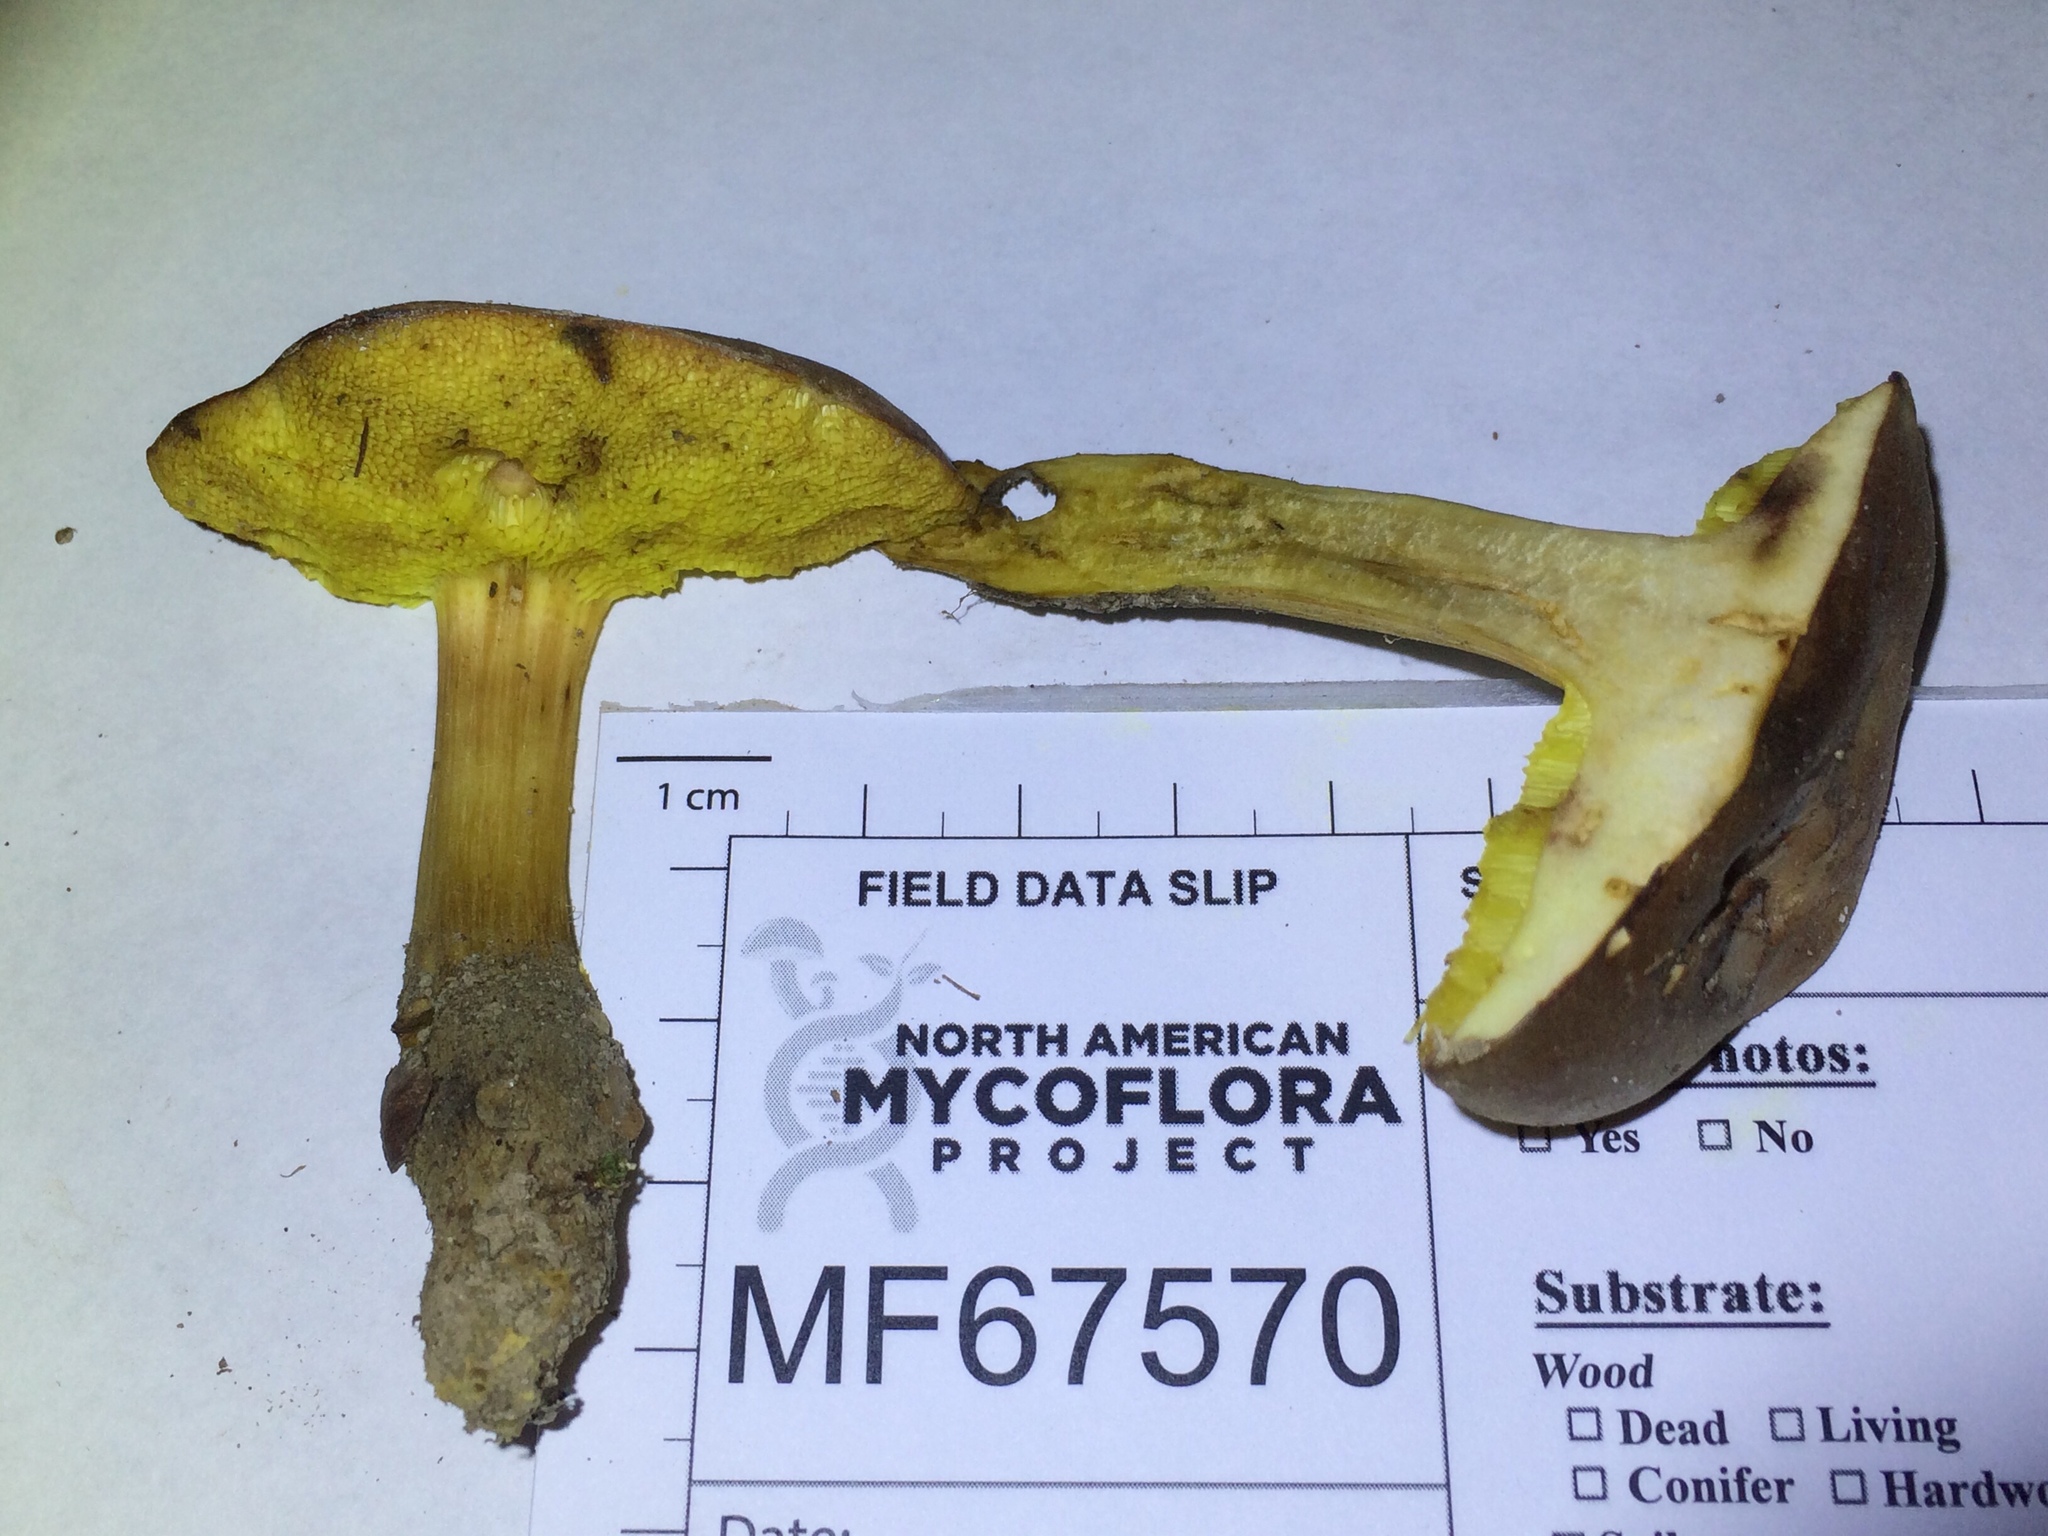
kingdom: Fungi
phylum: Basidiomycota
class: Agaricomycetes
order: Boletales
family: Boletaceae
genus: Aureoboletus
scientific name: Aureoboletus innixus
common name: Clustered brown bolete
